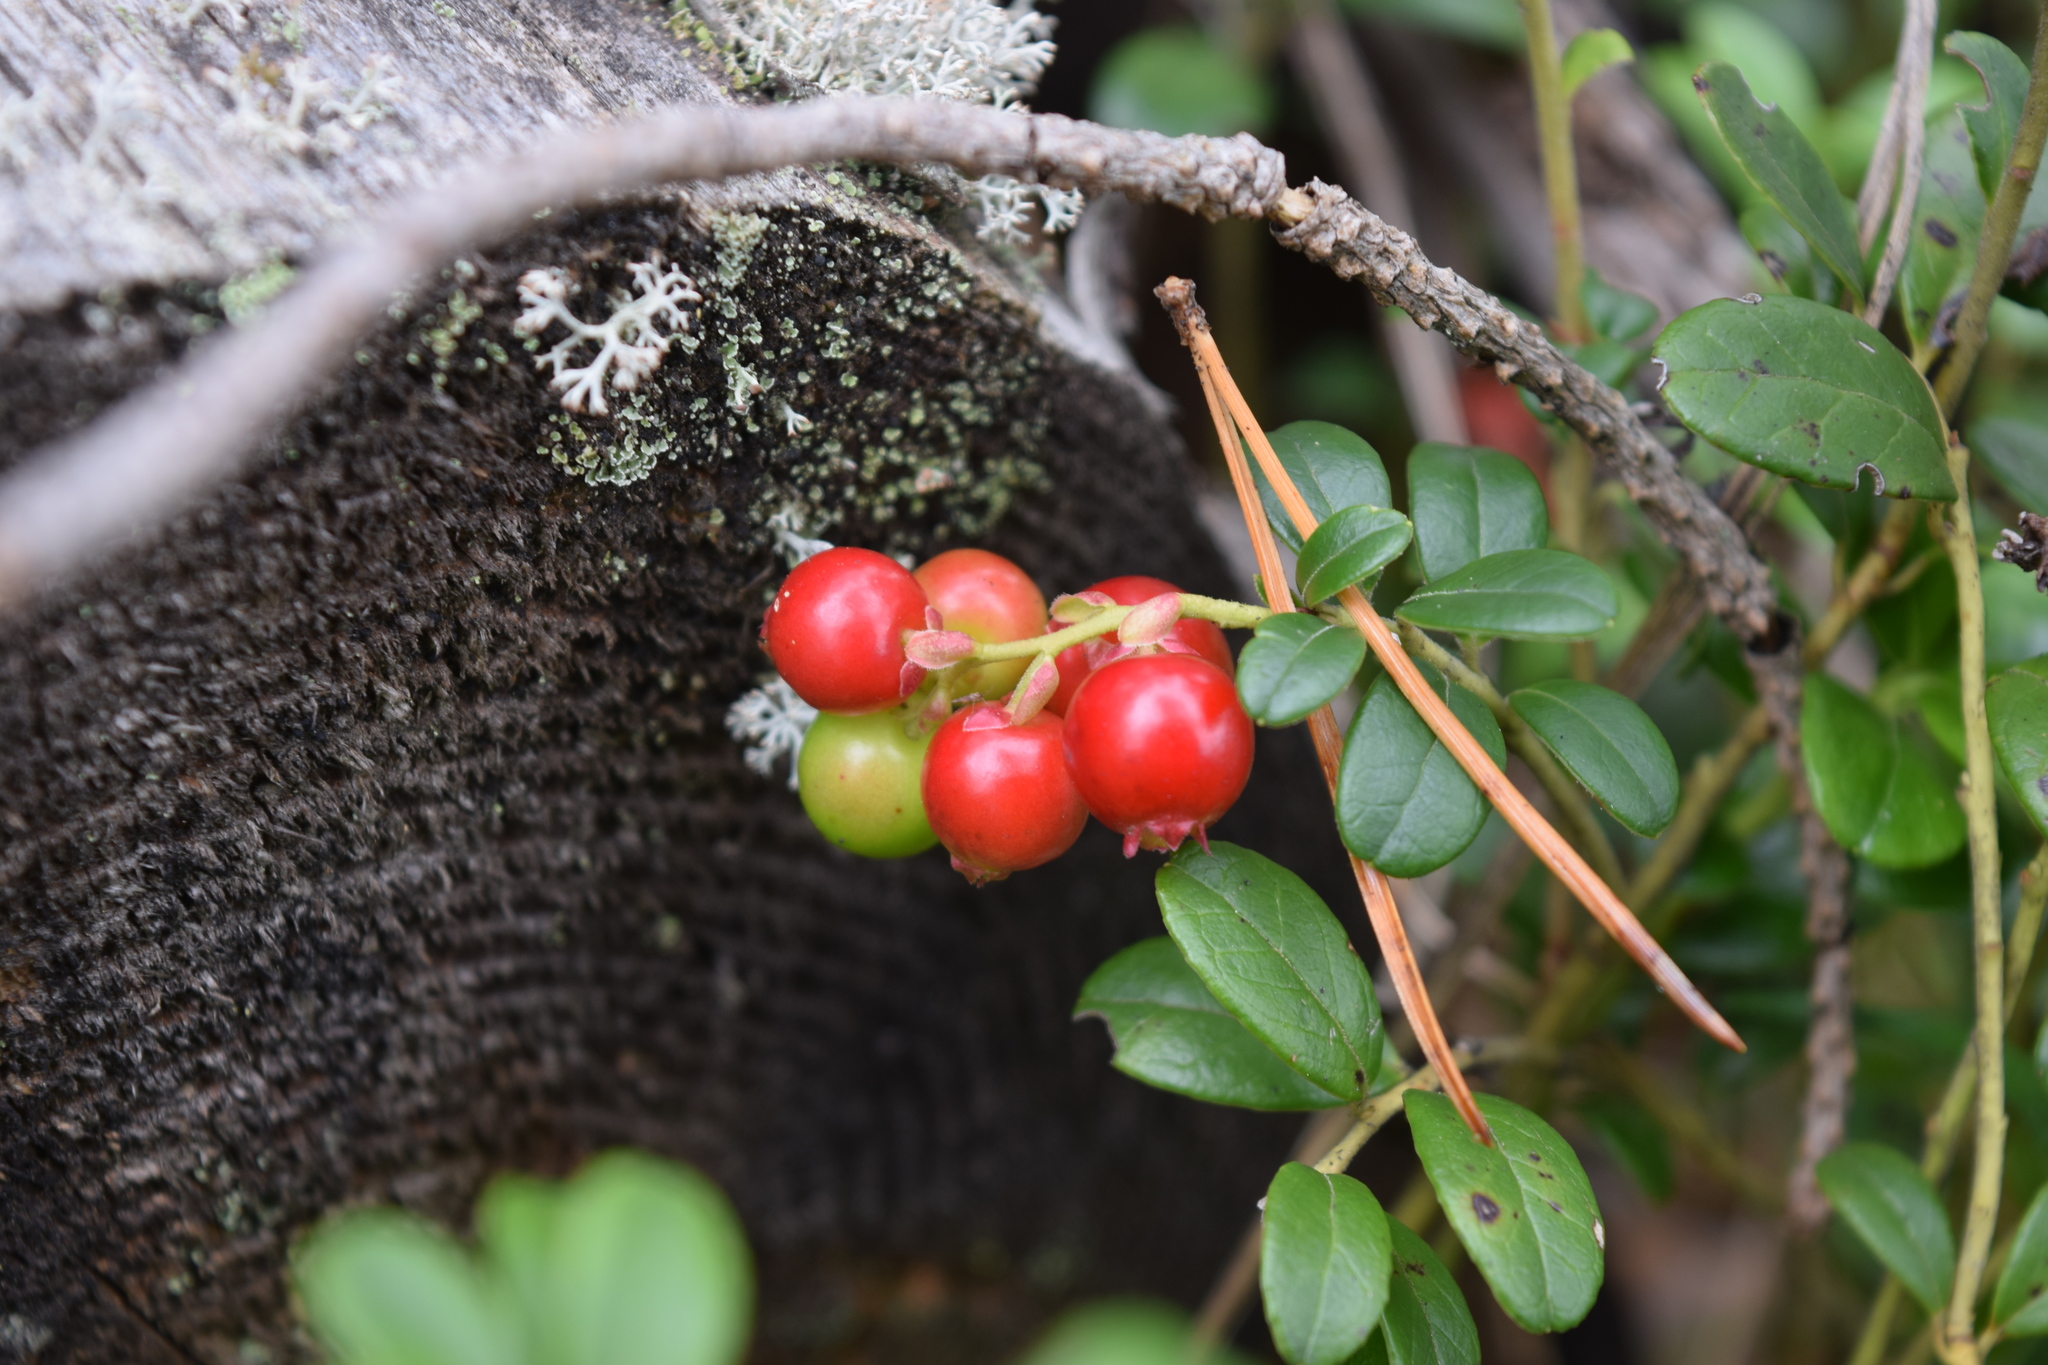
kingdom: Plantae
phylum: Tracheophyta
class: Magnoliopsida
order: Ericales
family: Ericaceae
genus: Vaccinium
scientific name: Vaccinium vitis-idaea
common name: Cowberry
